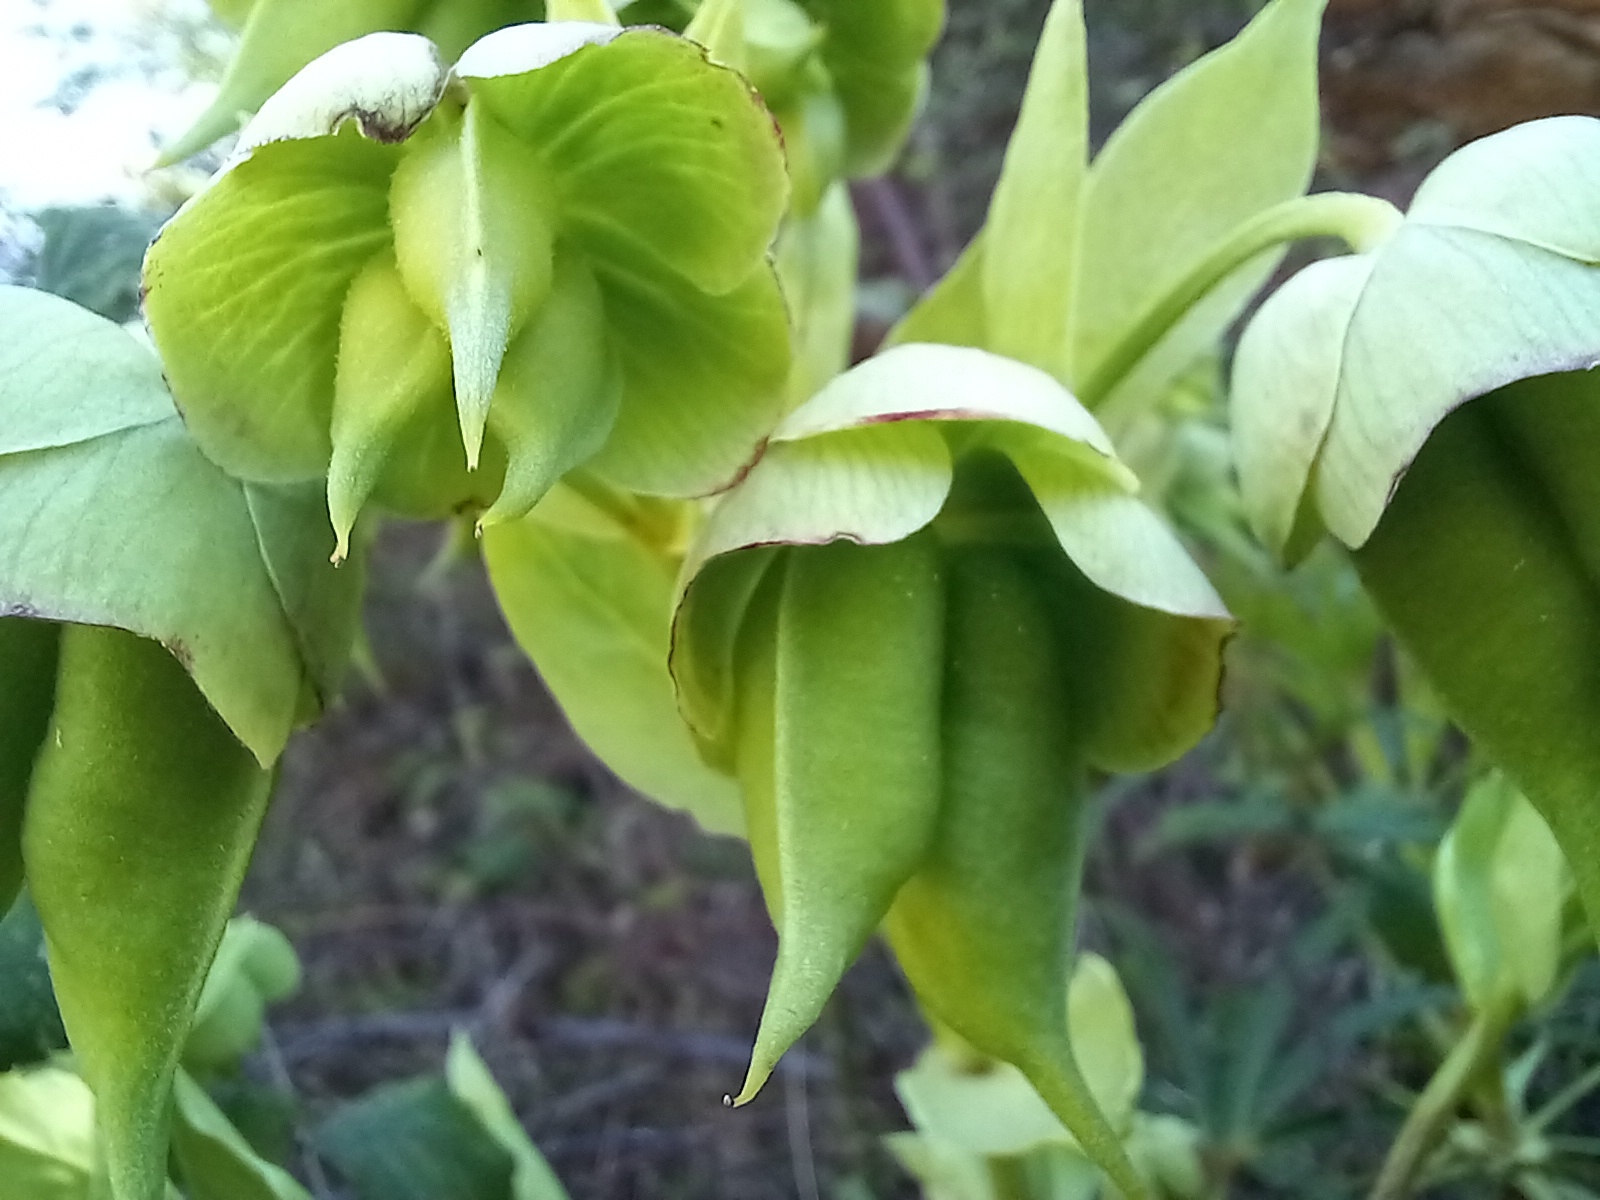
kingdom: Plantae
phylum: Tracheophyta
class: Magnoliopsida
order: Ranunculales
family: Ranunculaceae
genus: Helleborus
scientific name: Helleborus foetidus
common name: Stinking hellebore
